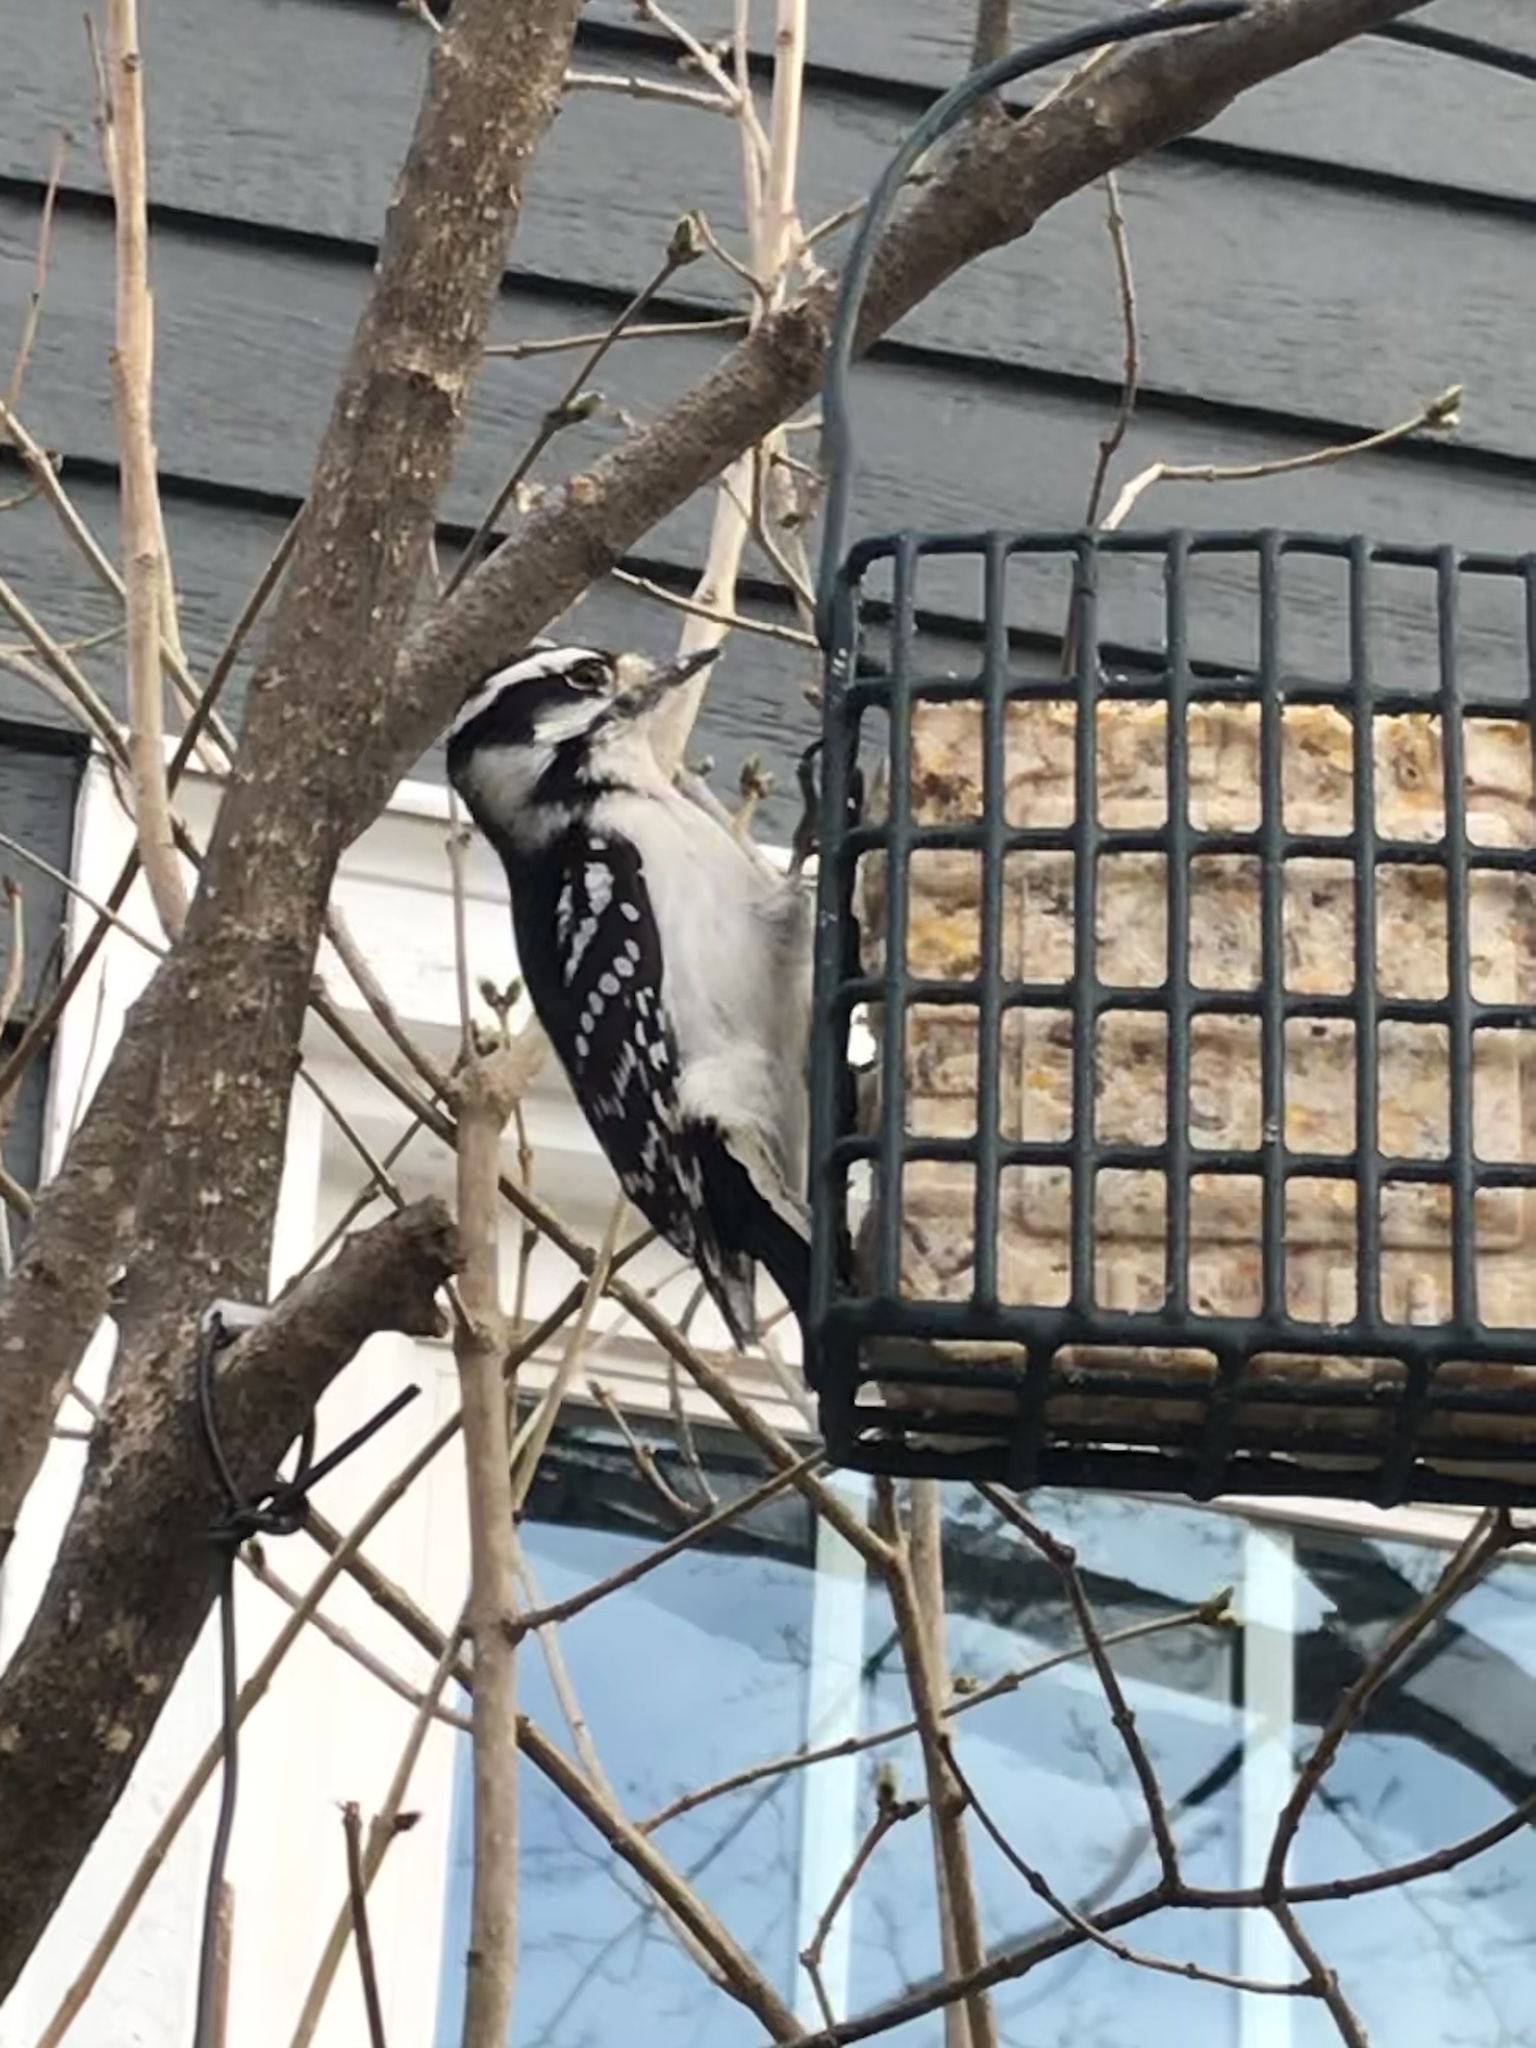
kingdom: Animalia
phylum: Chordata
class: Aves
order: Piciformes
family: Picidae
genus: Dryobates
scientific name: Dryobates pubescens
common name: Downy woodpecker
